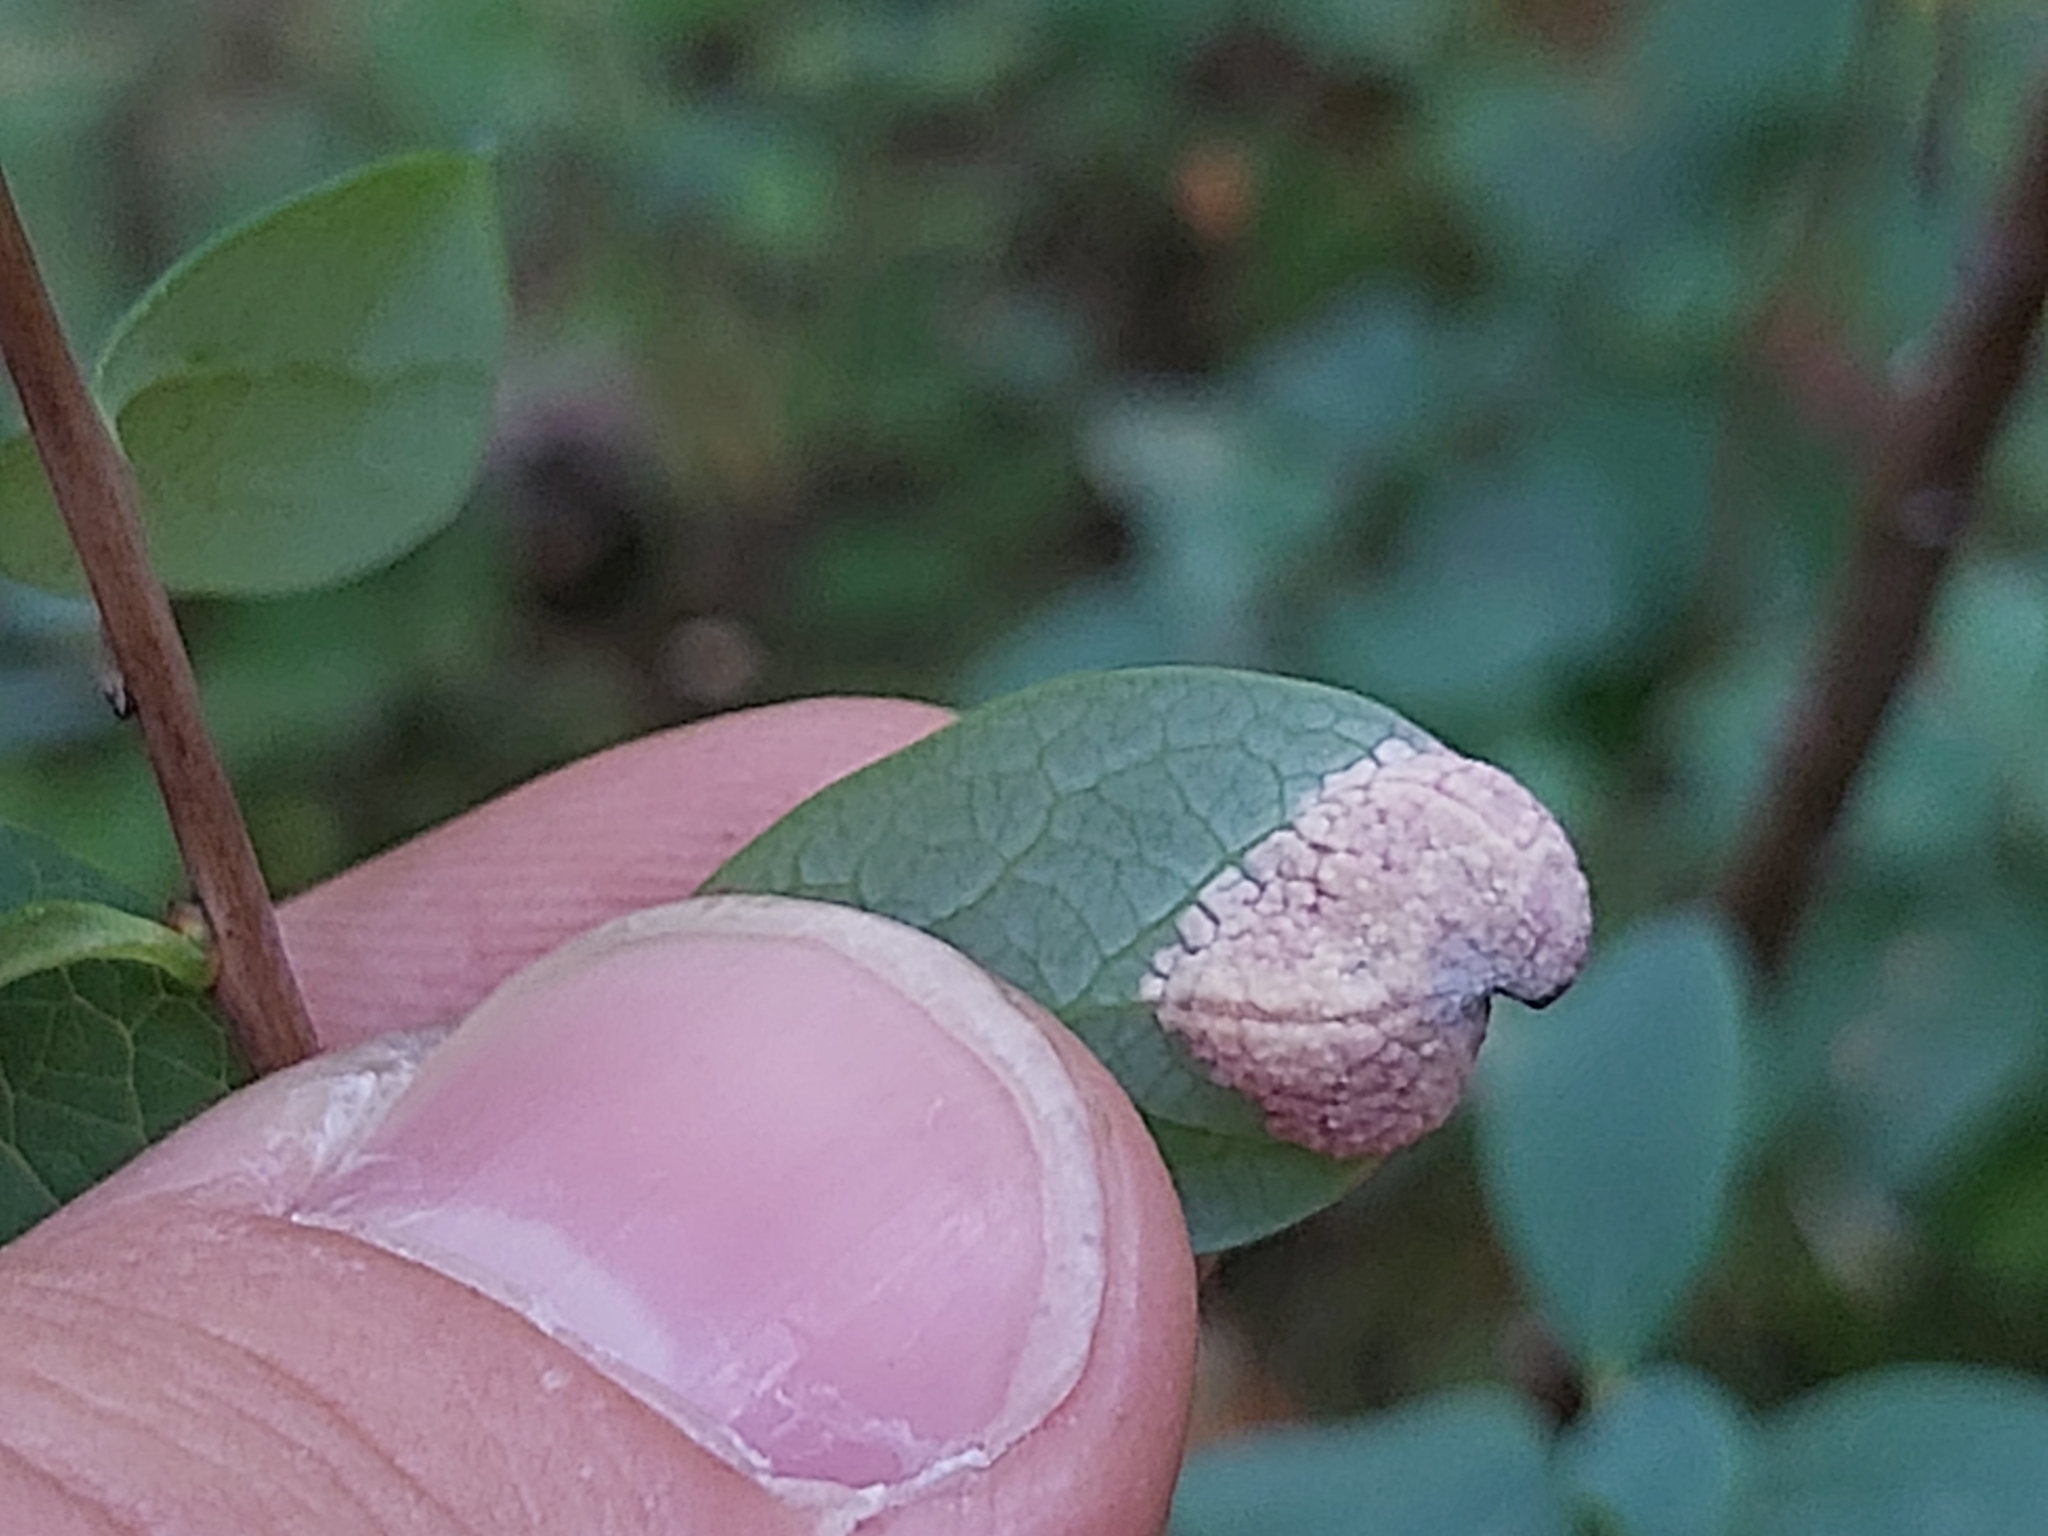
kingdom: Fungi
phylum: Basidiomycota
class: Exobasidiomycetes
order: Exobasidiales
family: Exobasidiaceae
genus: Exobasidium
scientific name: Exobasidium pachysporum
